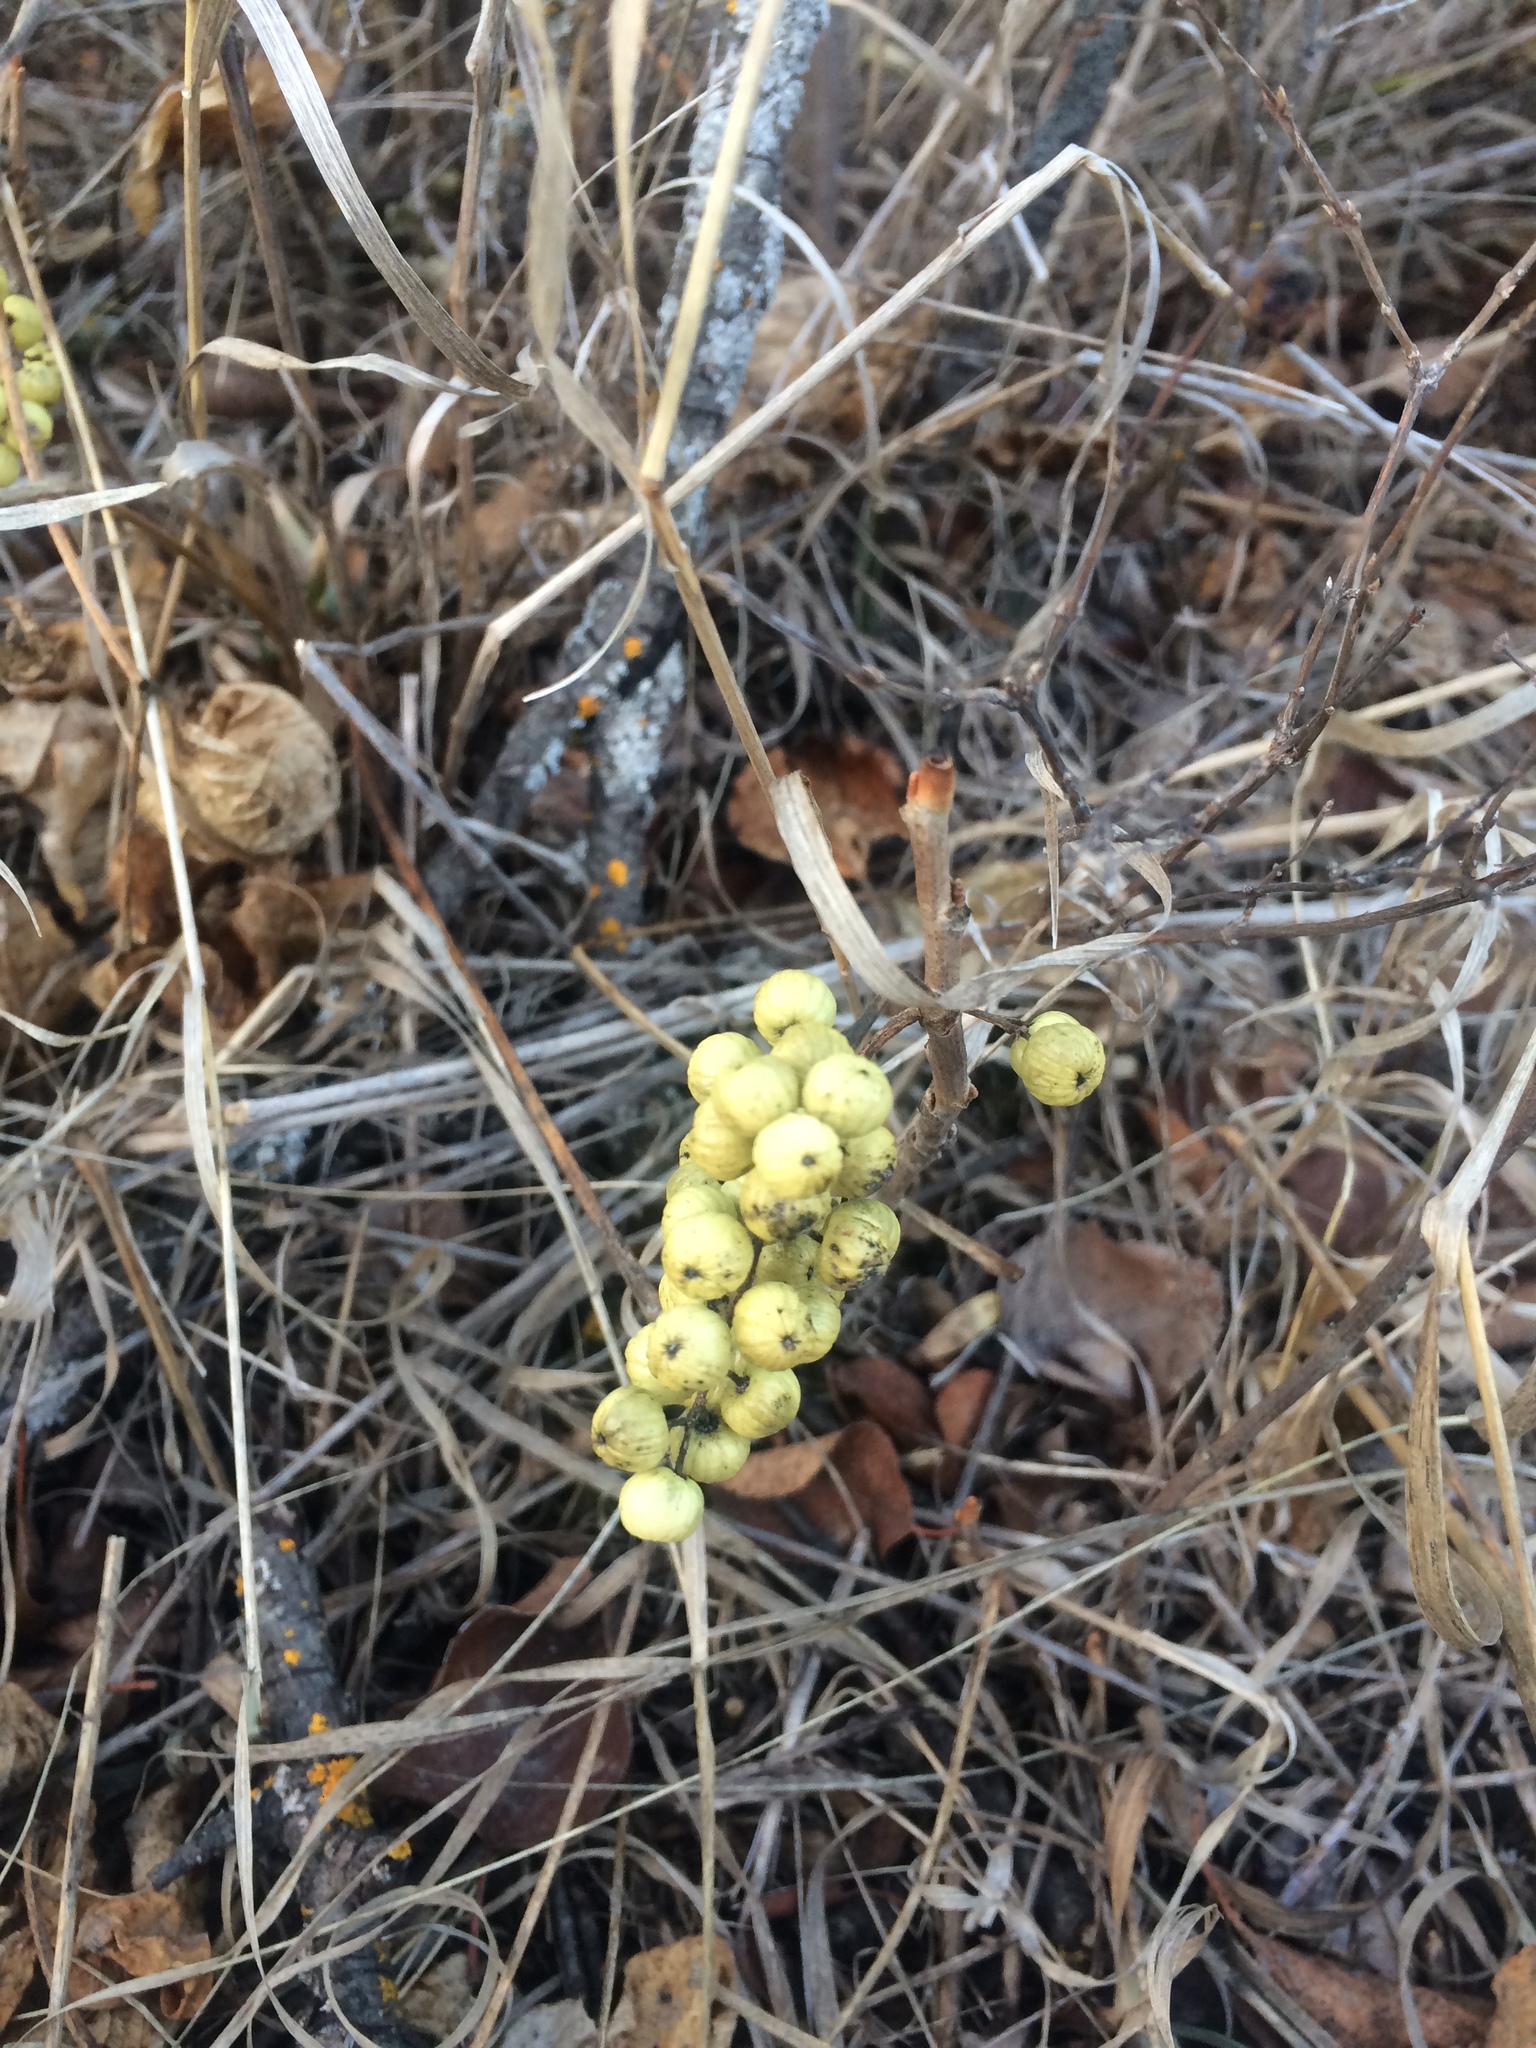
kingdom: Plantae
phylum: Tracheophyta
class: Magnoliopsida
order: Sapindales
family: Anacardiaceae
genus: Toxicodendron
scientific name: Toxicodendron rydbergii
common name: Rydberg's poison-ivy
